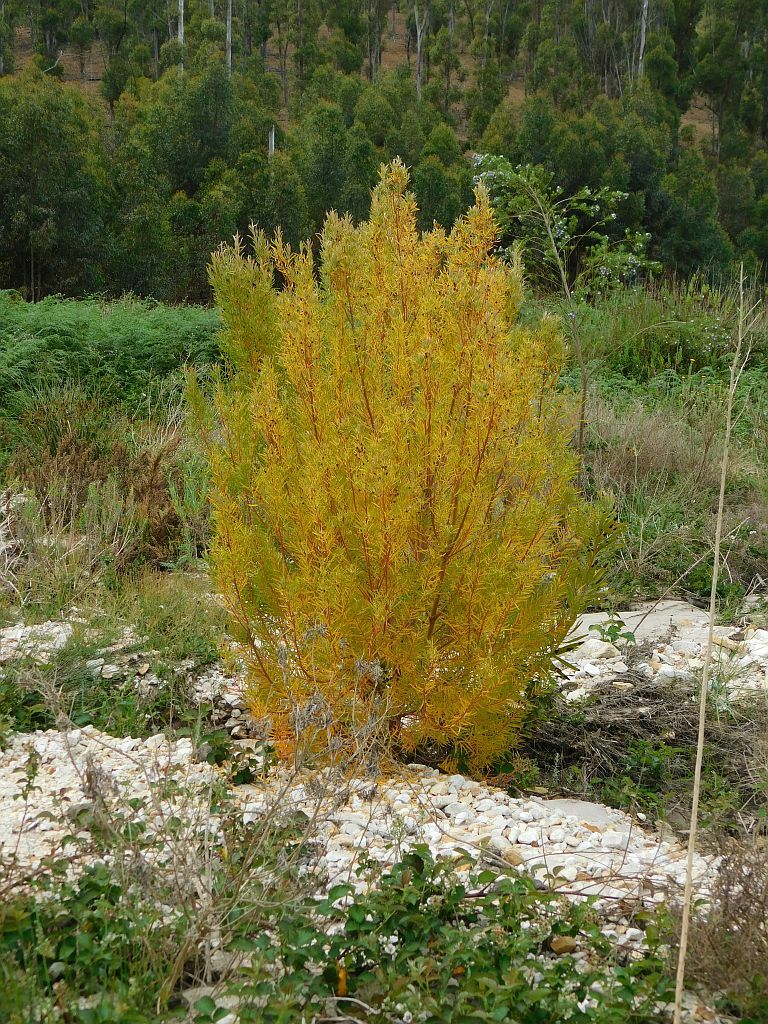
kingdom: Plantae
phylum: Tracheophyta
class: Magnoliopsida
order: Proteales
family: Proteaceae
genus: Leucadendron
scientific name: Leucadendron salicifolium
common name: Common stream conebush
